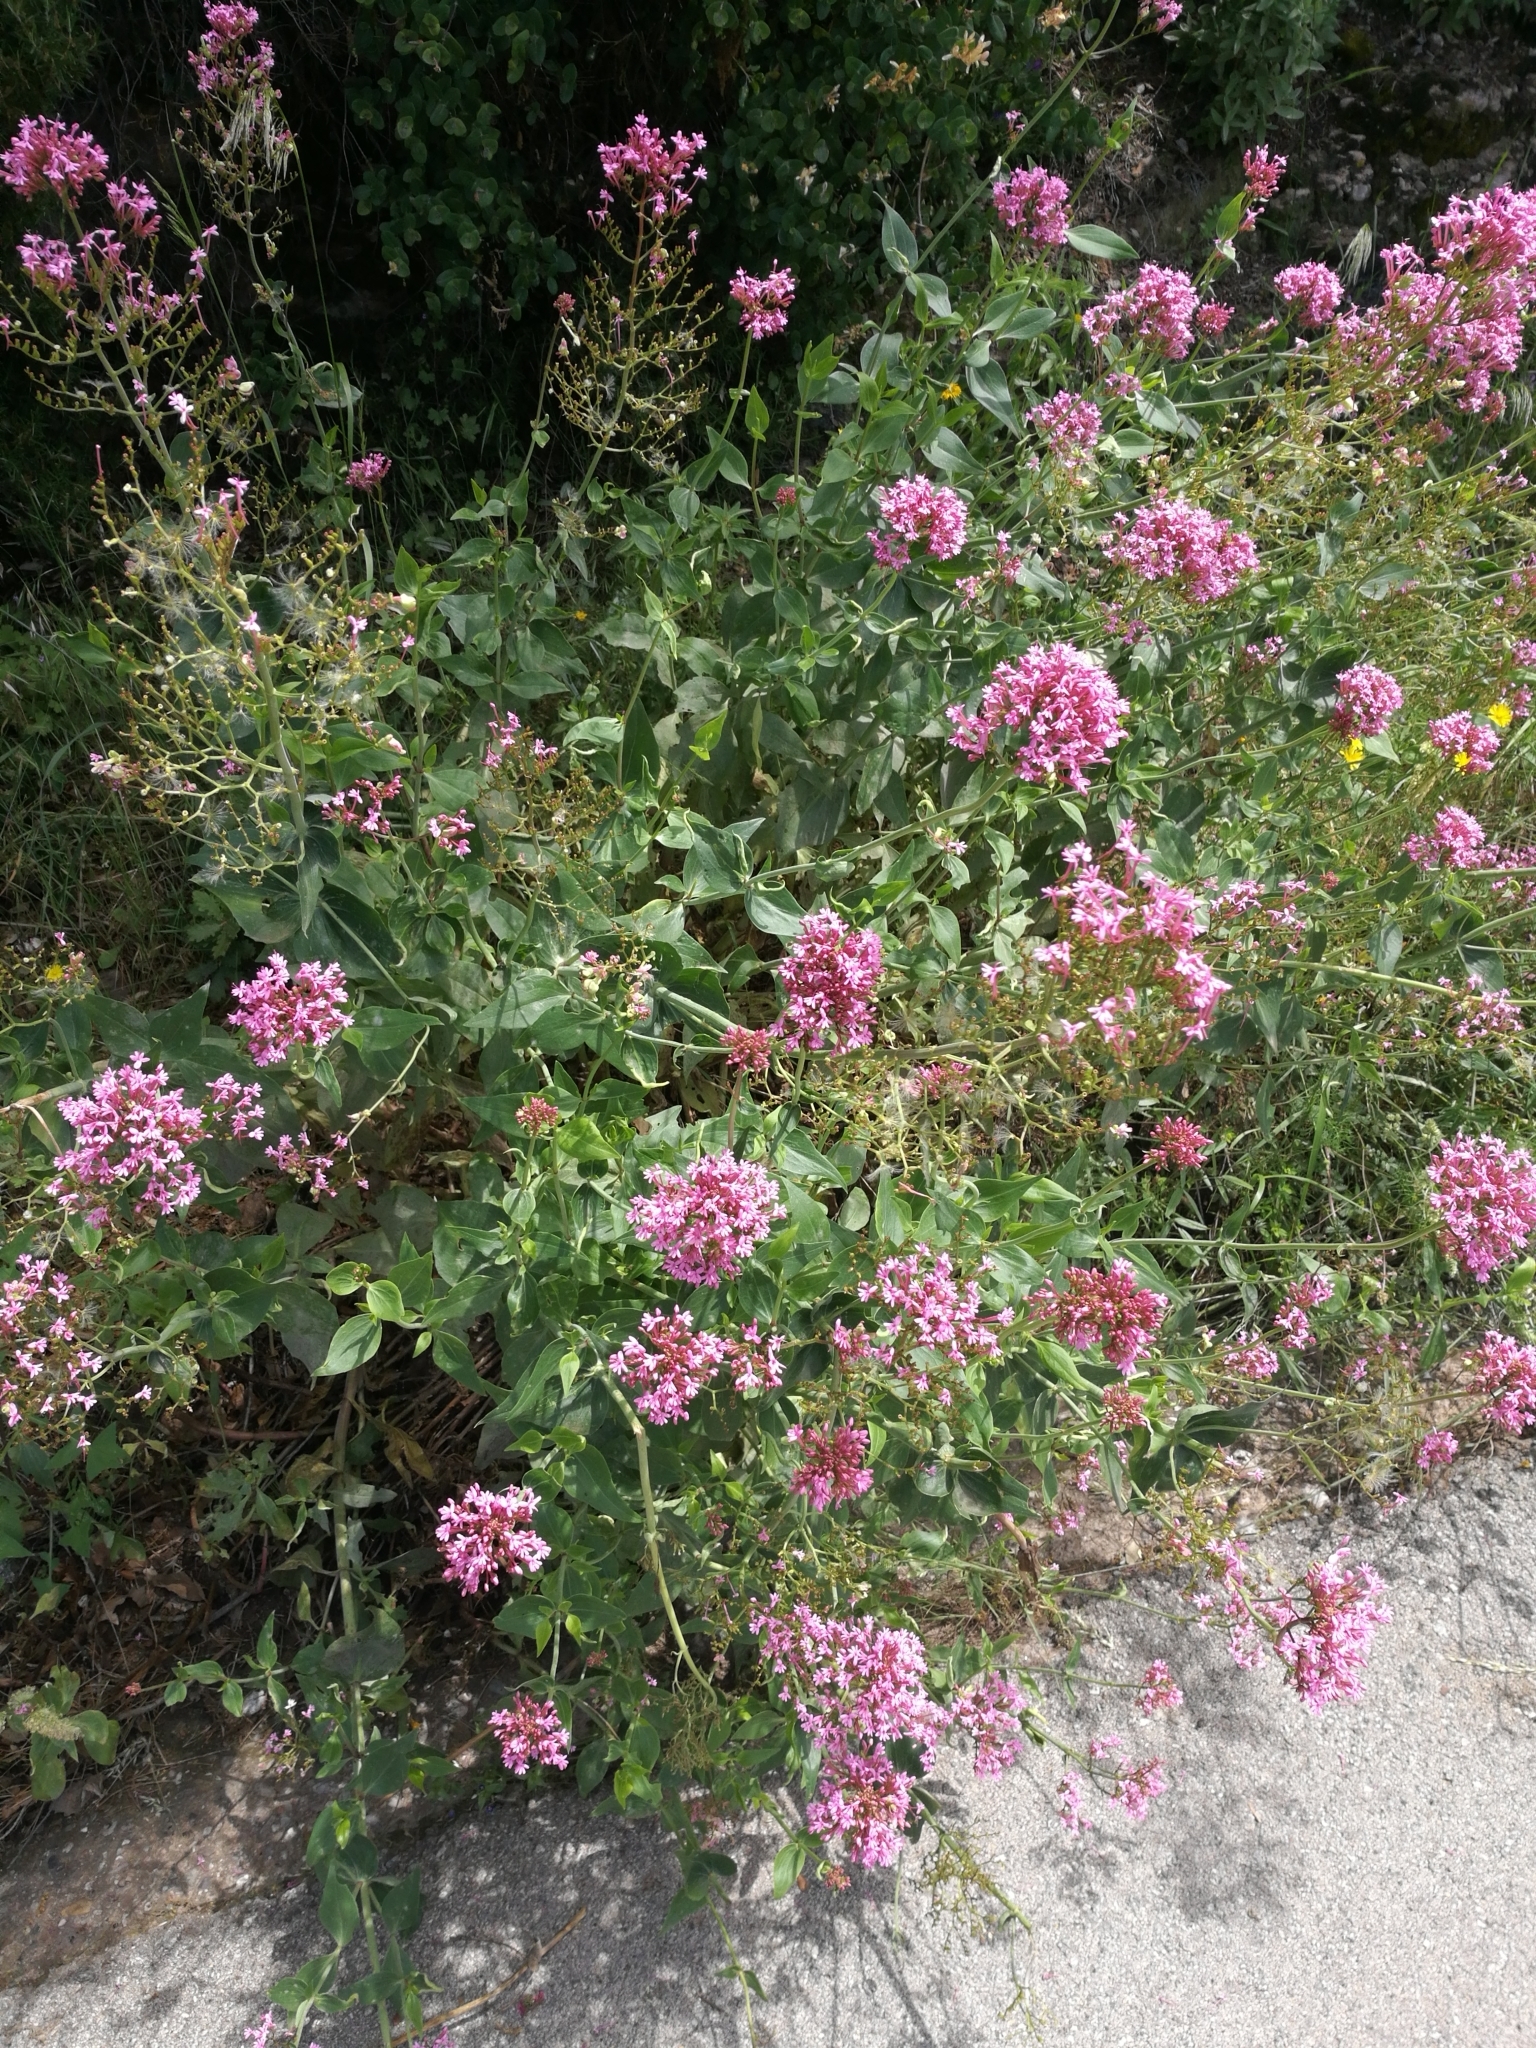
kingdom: Plantae
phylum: Tracheophyta
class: Magnoliopsida
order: Dipsacales
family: Caprifoliaceae
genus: Centranthus
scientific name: Centranthus ruber
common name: Red valerian
